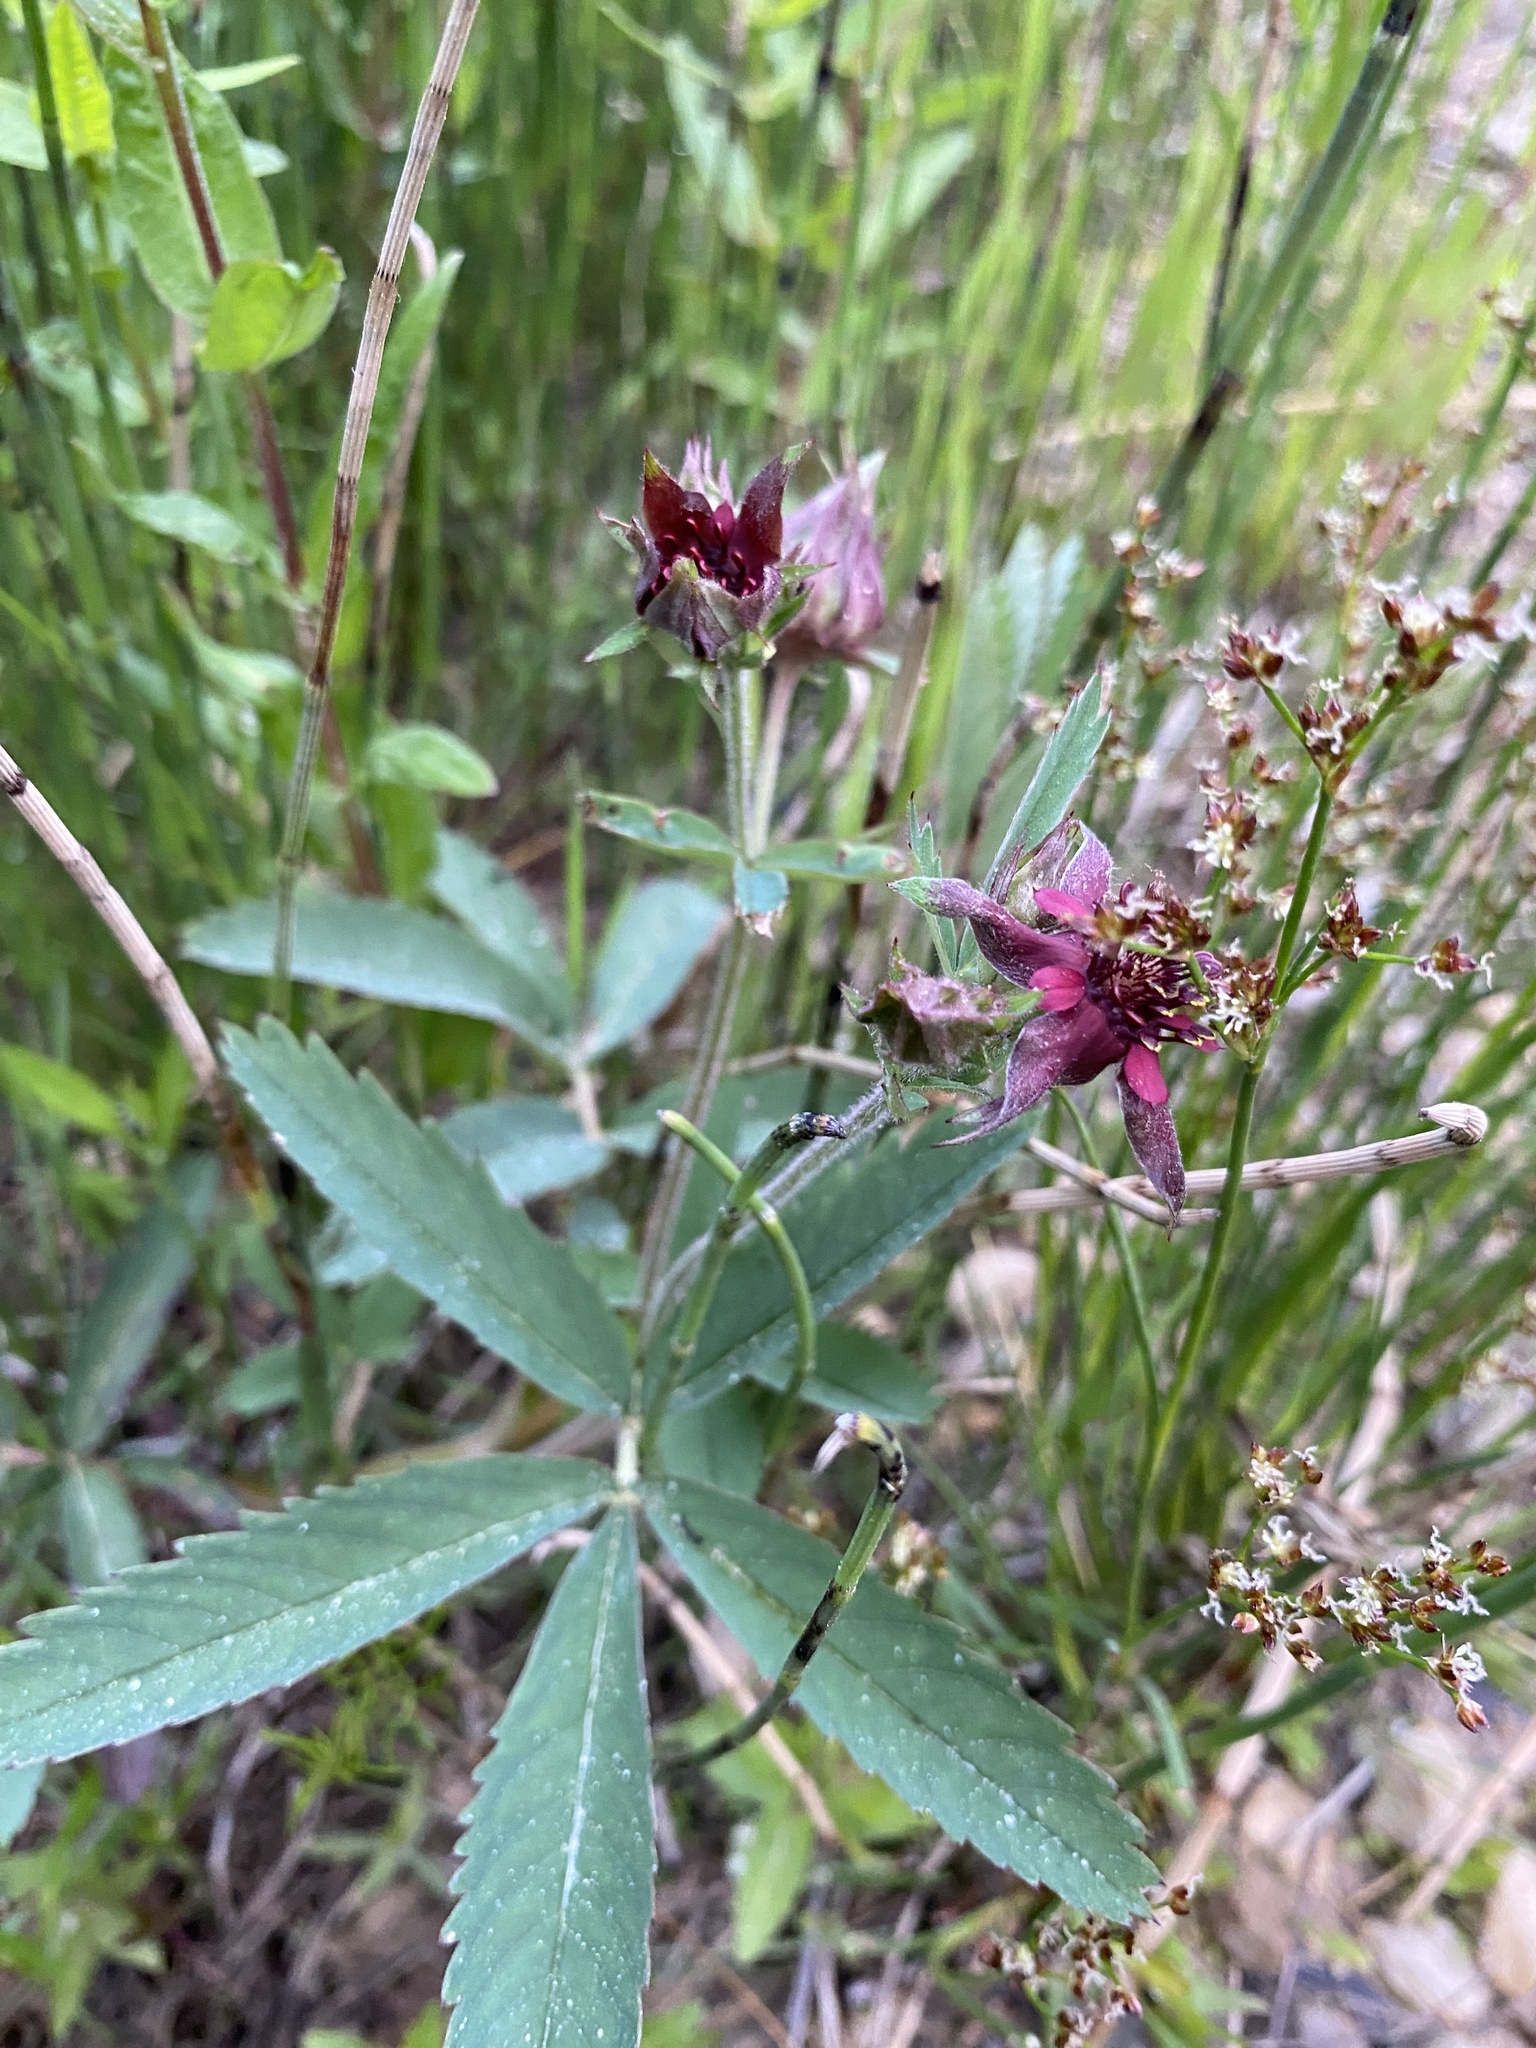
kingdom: Plantae
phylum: Tracheophyta
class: Magnoliopsida
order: Rosales
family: Rosaceae
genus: Comarum
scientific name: Comarum palustre
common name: Marsh cinquefoil
